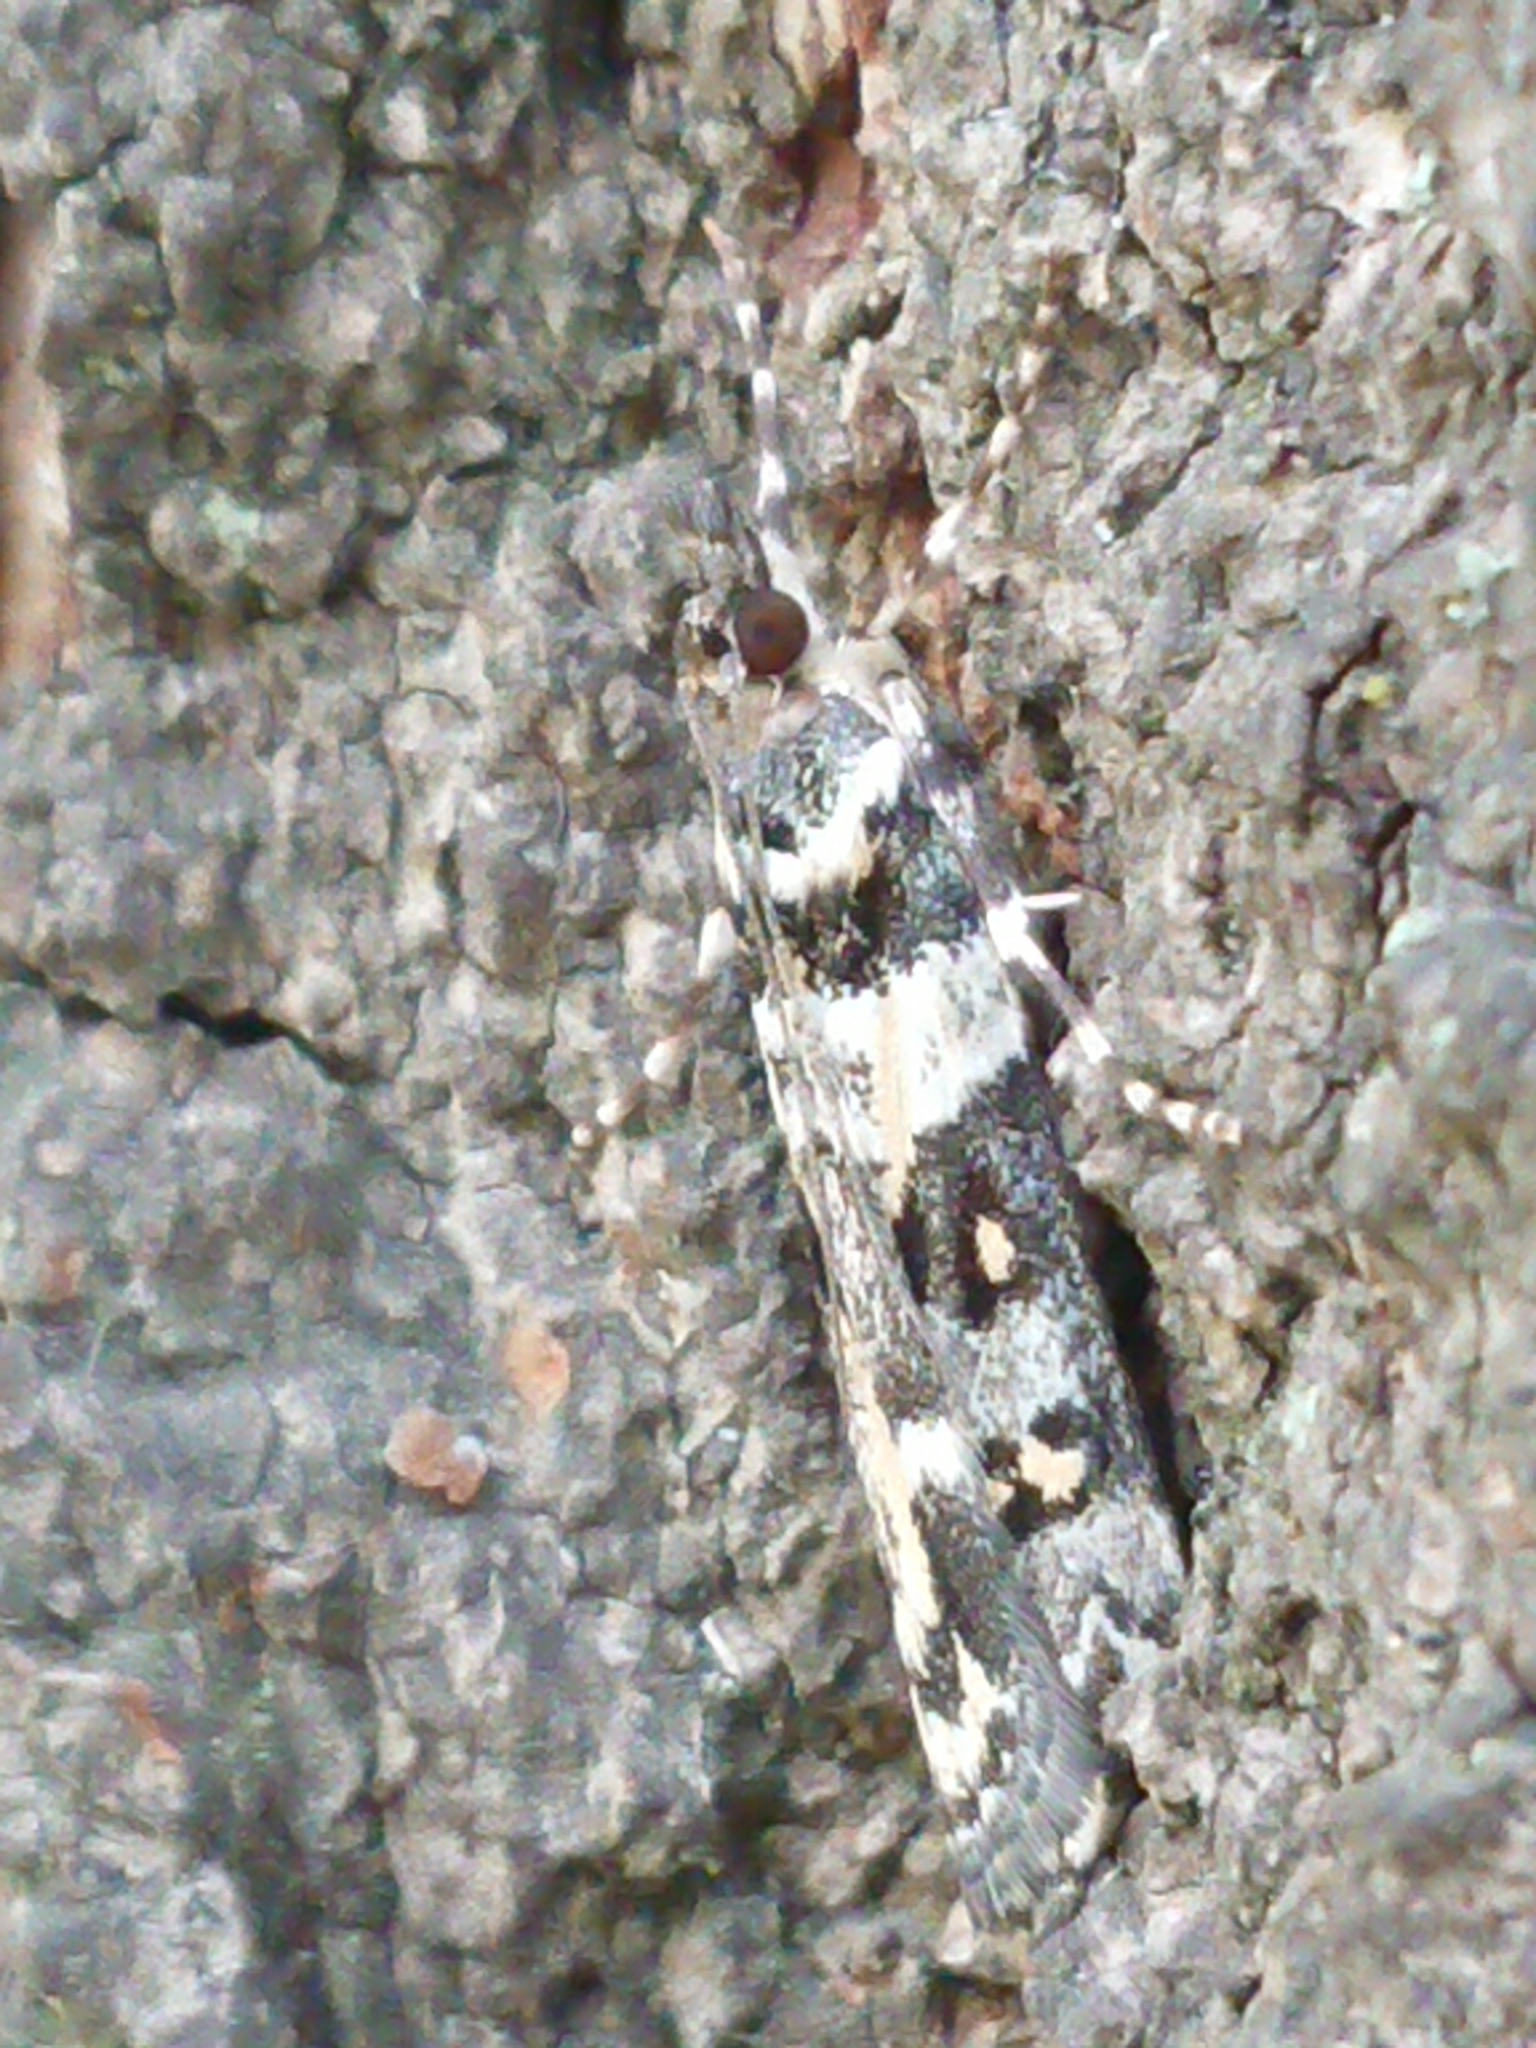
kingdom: Animalia
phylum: Arthropoda
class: Insecta
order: Lepidoptera
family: Crambidae
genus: Eudonia
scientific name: Eudonia diphtheralis
